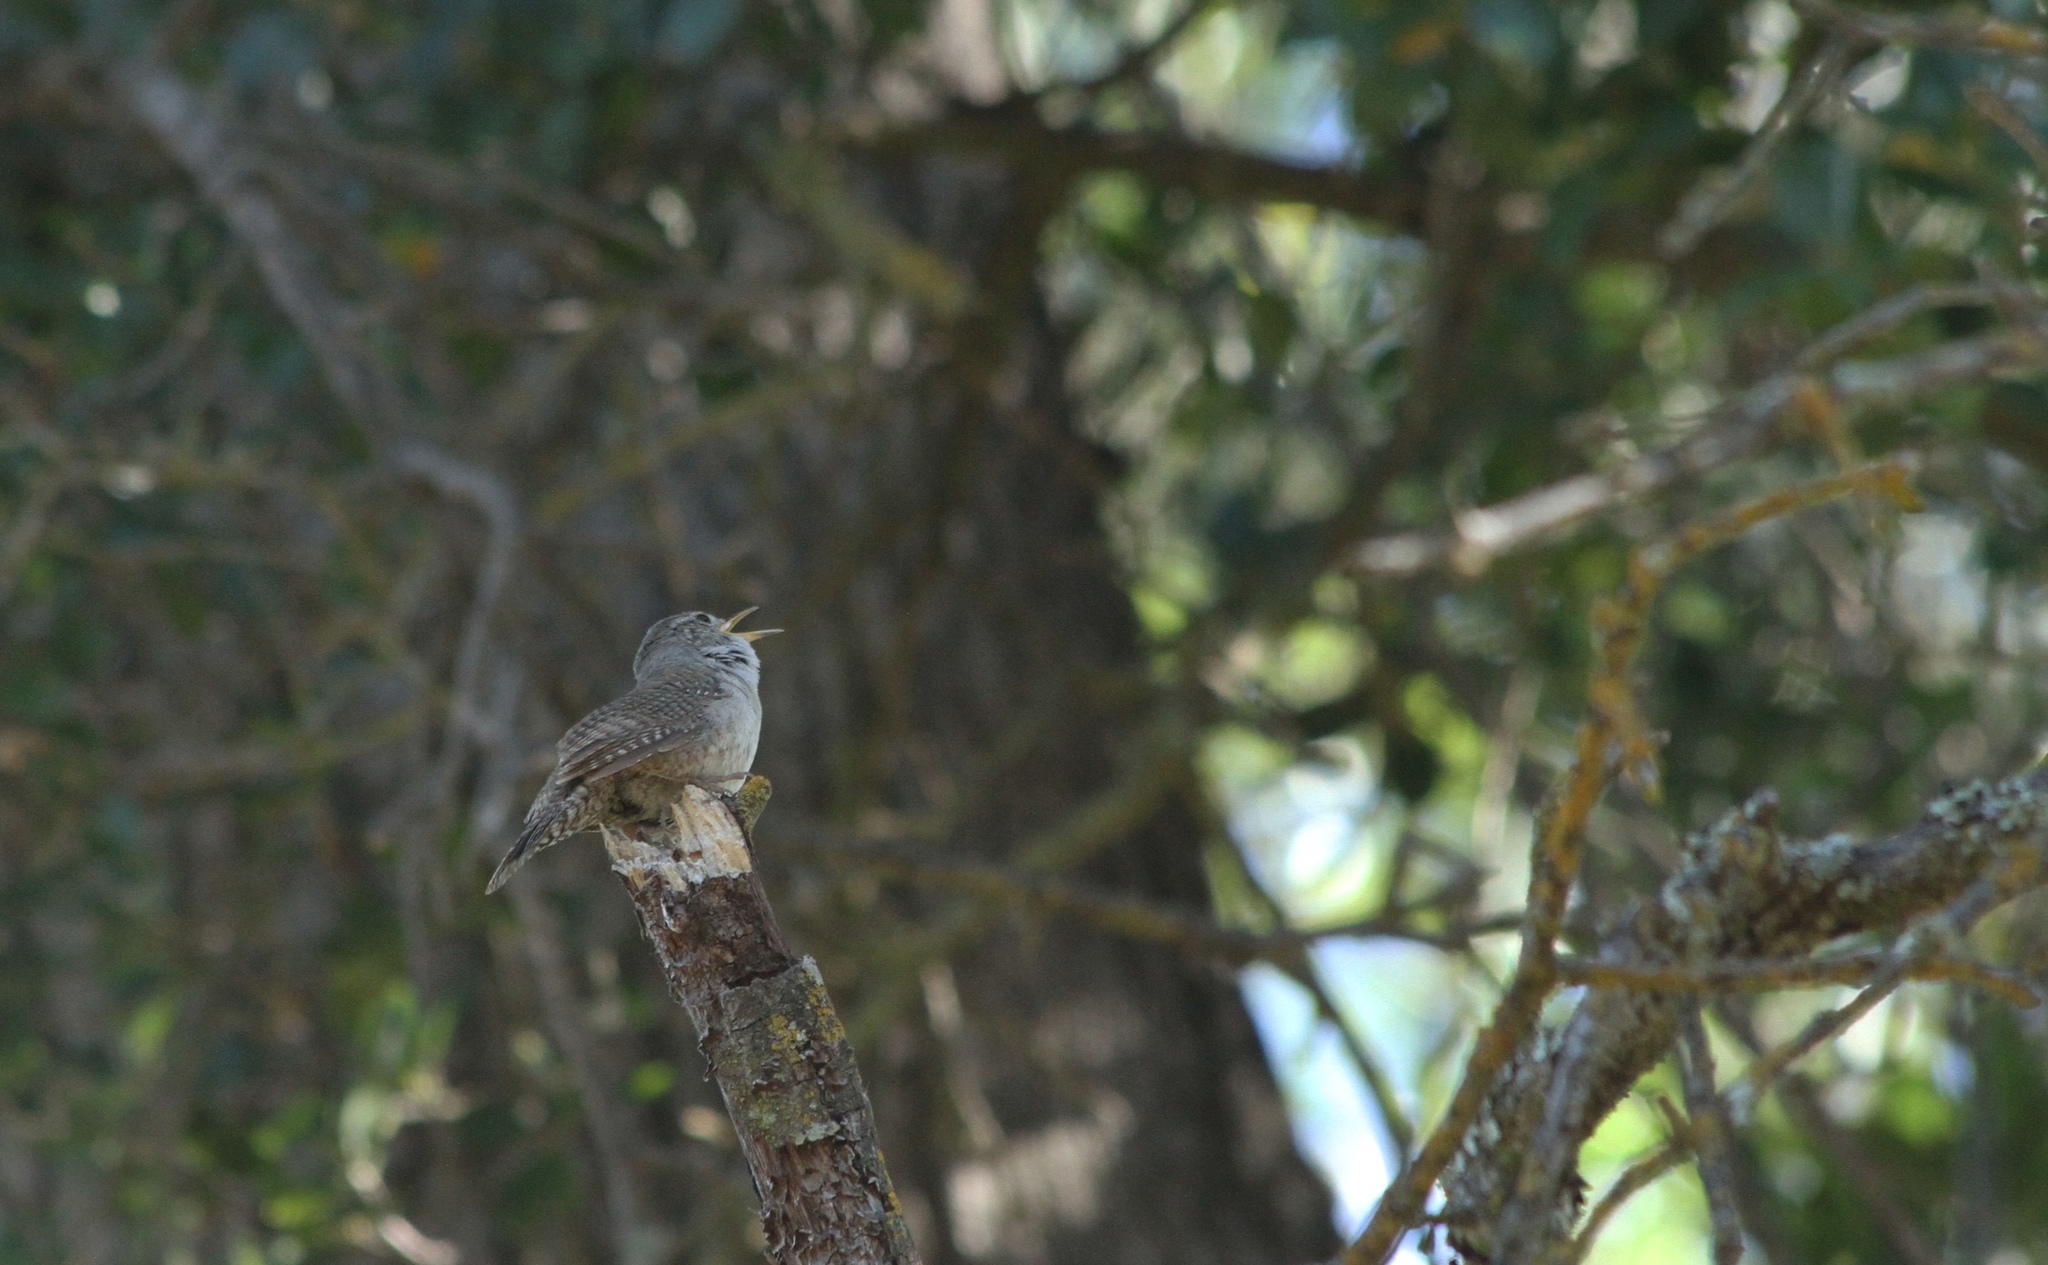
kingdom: Animalia
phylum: Chordata
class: Aves
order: Passeriformes
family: Troglodytidae
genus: Troglodytes
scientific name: Troglodytes aedon
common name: House wren
